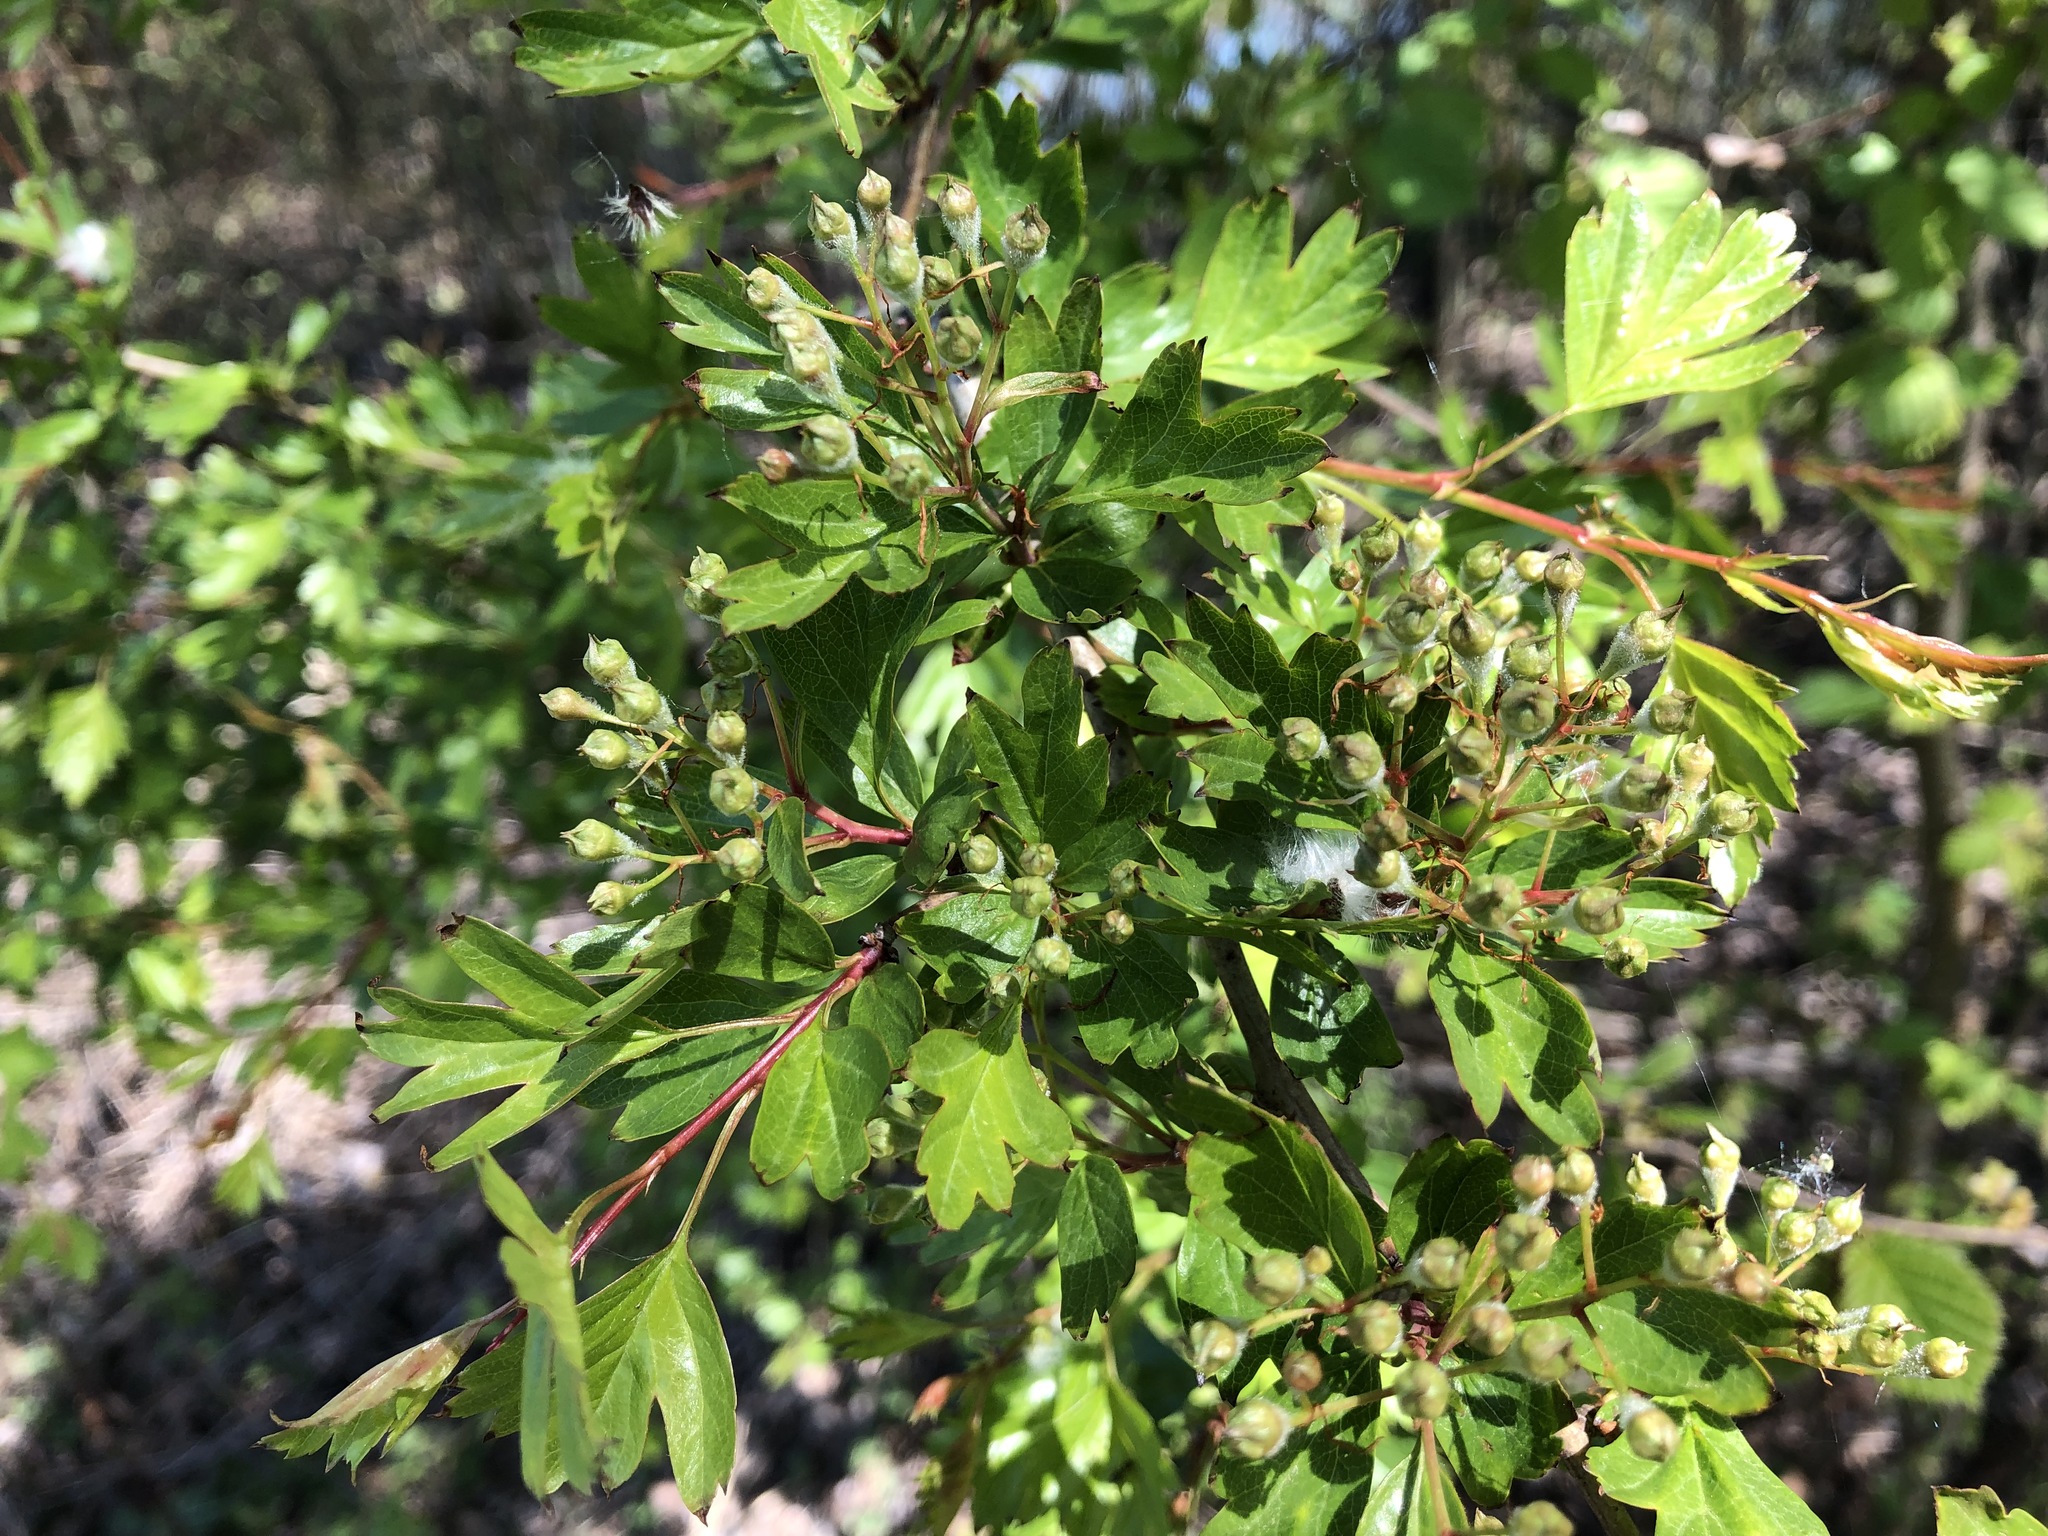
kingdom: Plantae
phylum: Tracheophyta
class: Magnoliopsida
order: Rosales
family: Rosaceae
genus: Crataegus
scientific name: Crataegus monogyna
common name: Hawthorn
